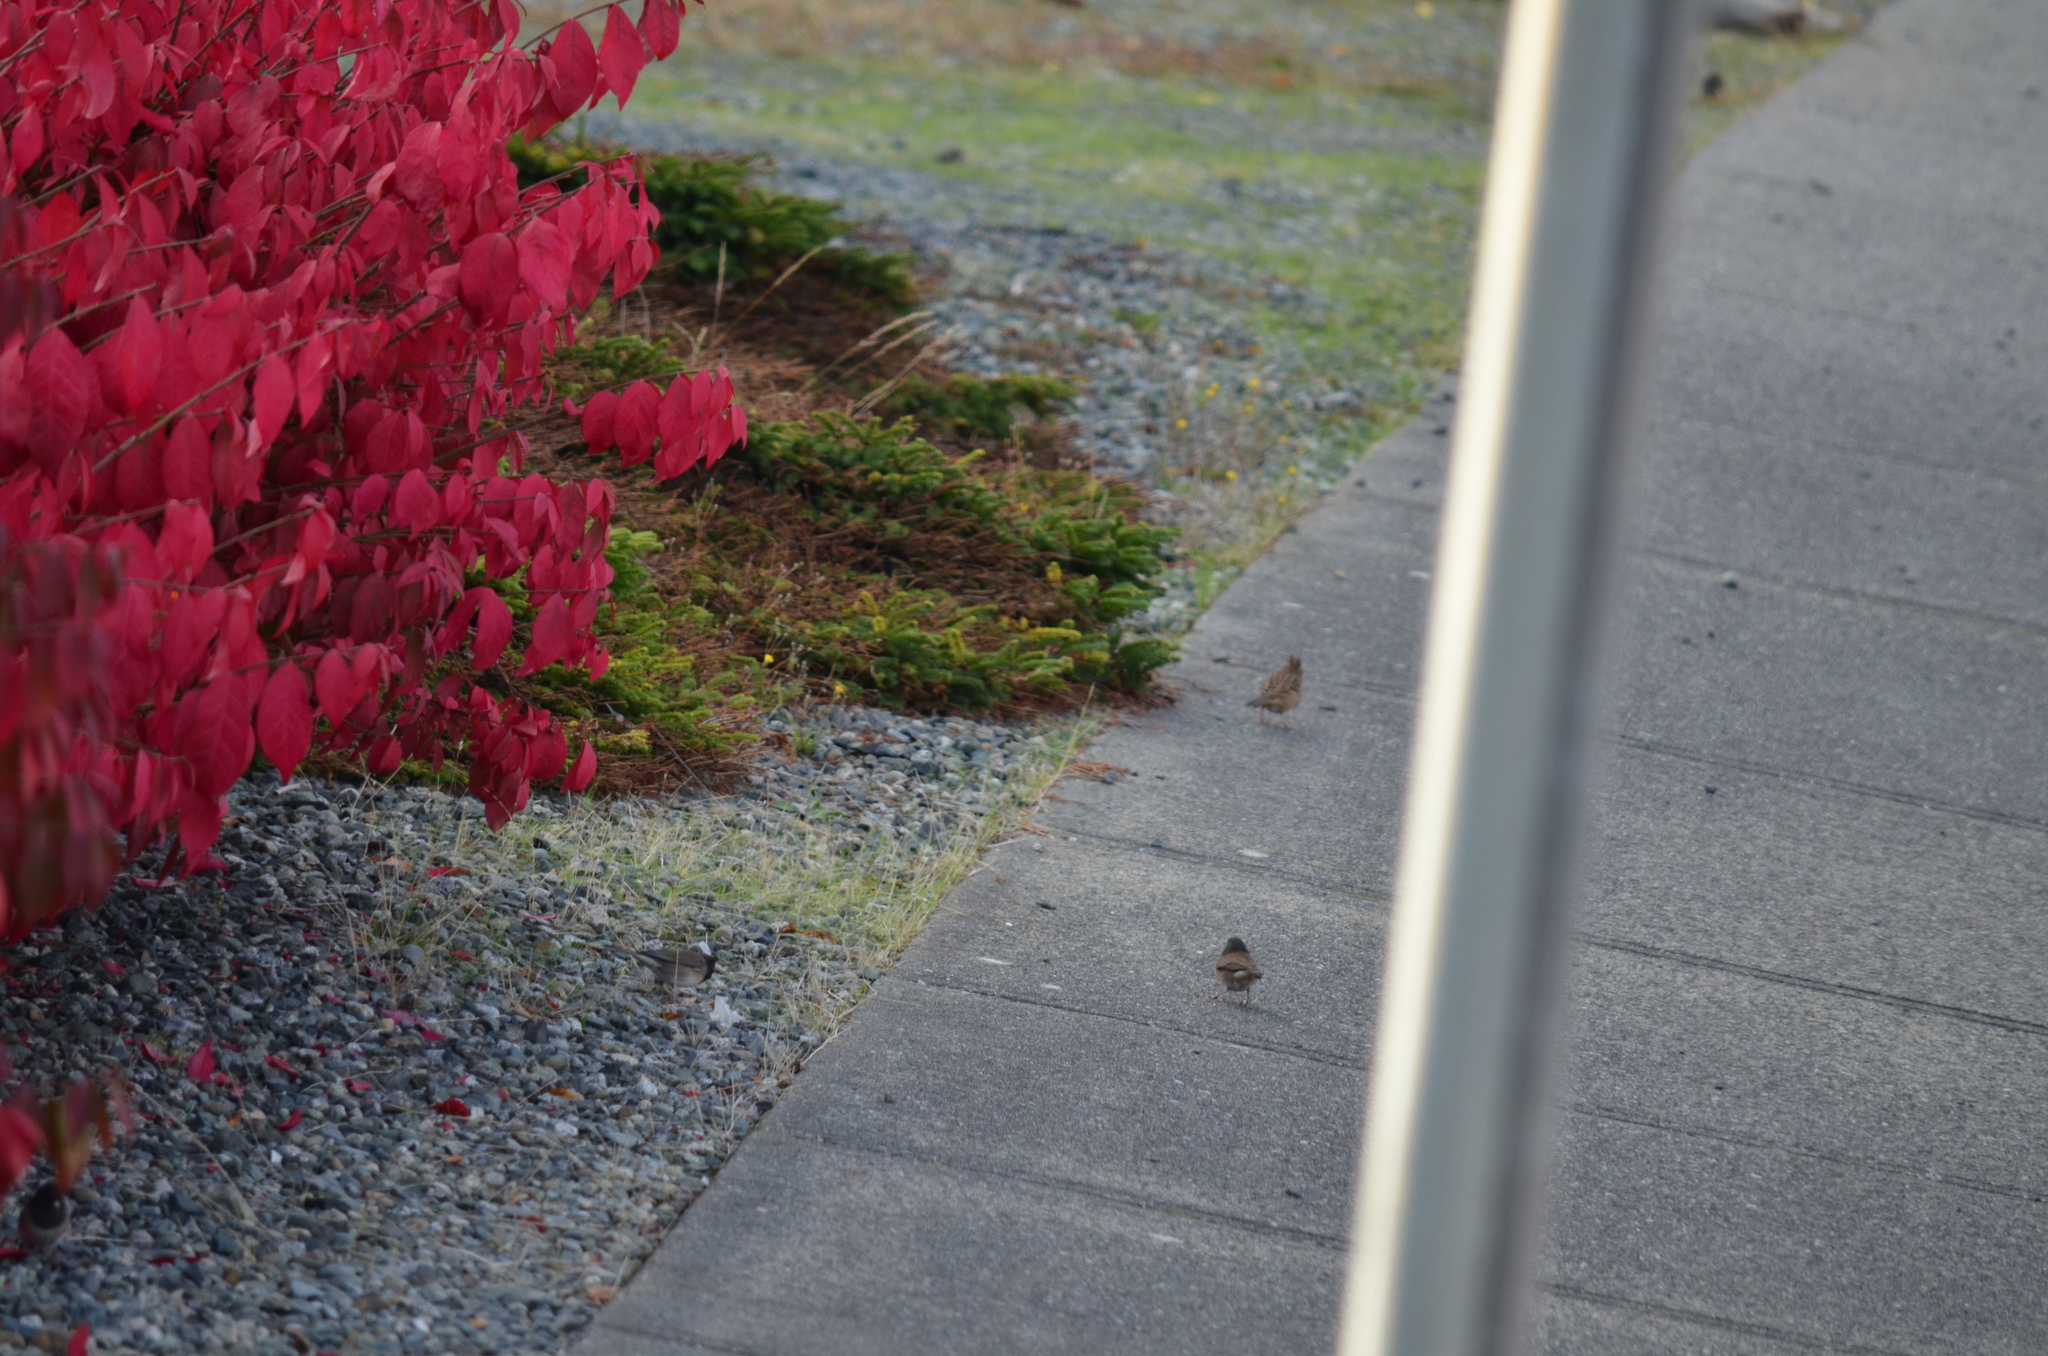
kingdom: Animalia
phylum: Chordata
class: Aves
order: Passeriformes
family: Passerellidae
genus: Junco
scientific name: Junco hyemalis
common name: Dark-eyed junco
